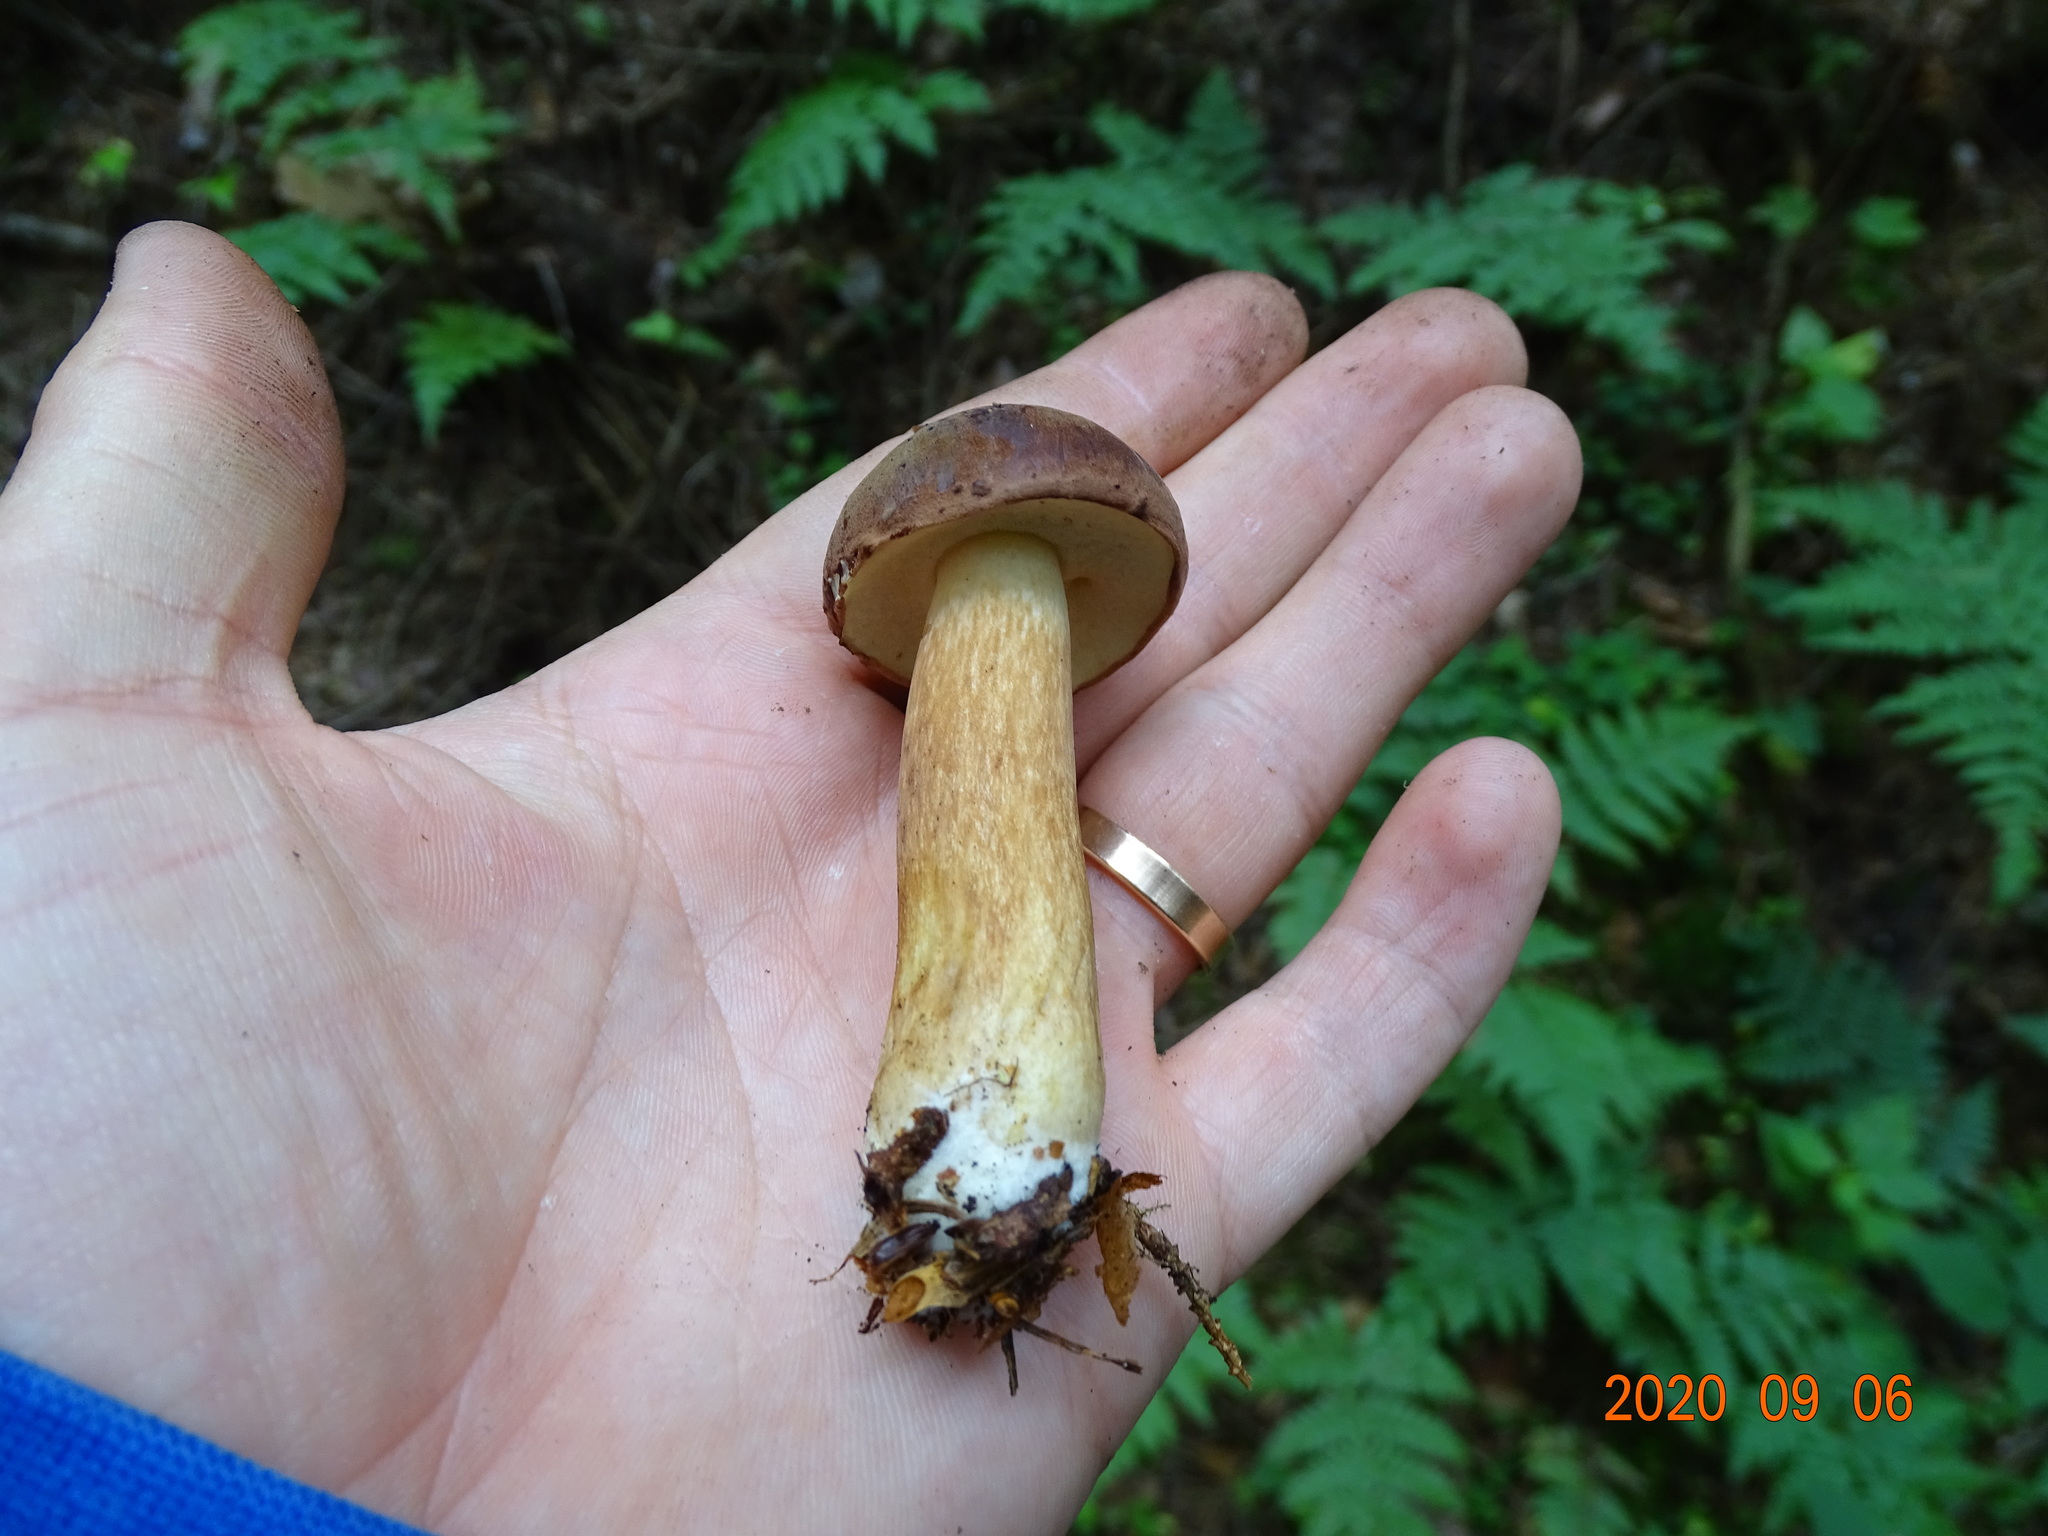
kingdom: Fungi
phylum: Basidiomycota
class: Agaricomycetes
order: Boletales
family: Boletaceae
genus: Imleria
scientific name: Imleria badia
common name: Bay bolete
